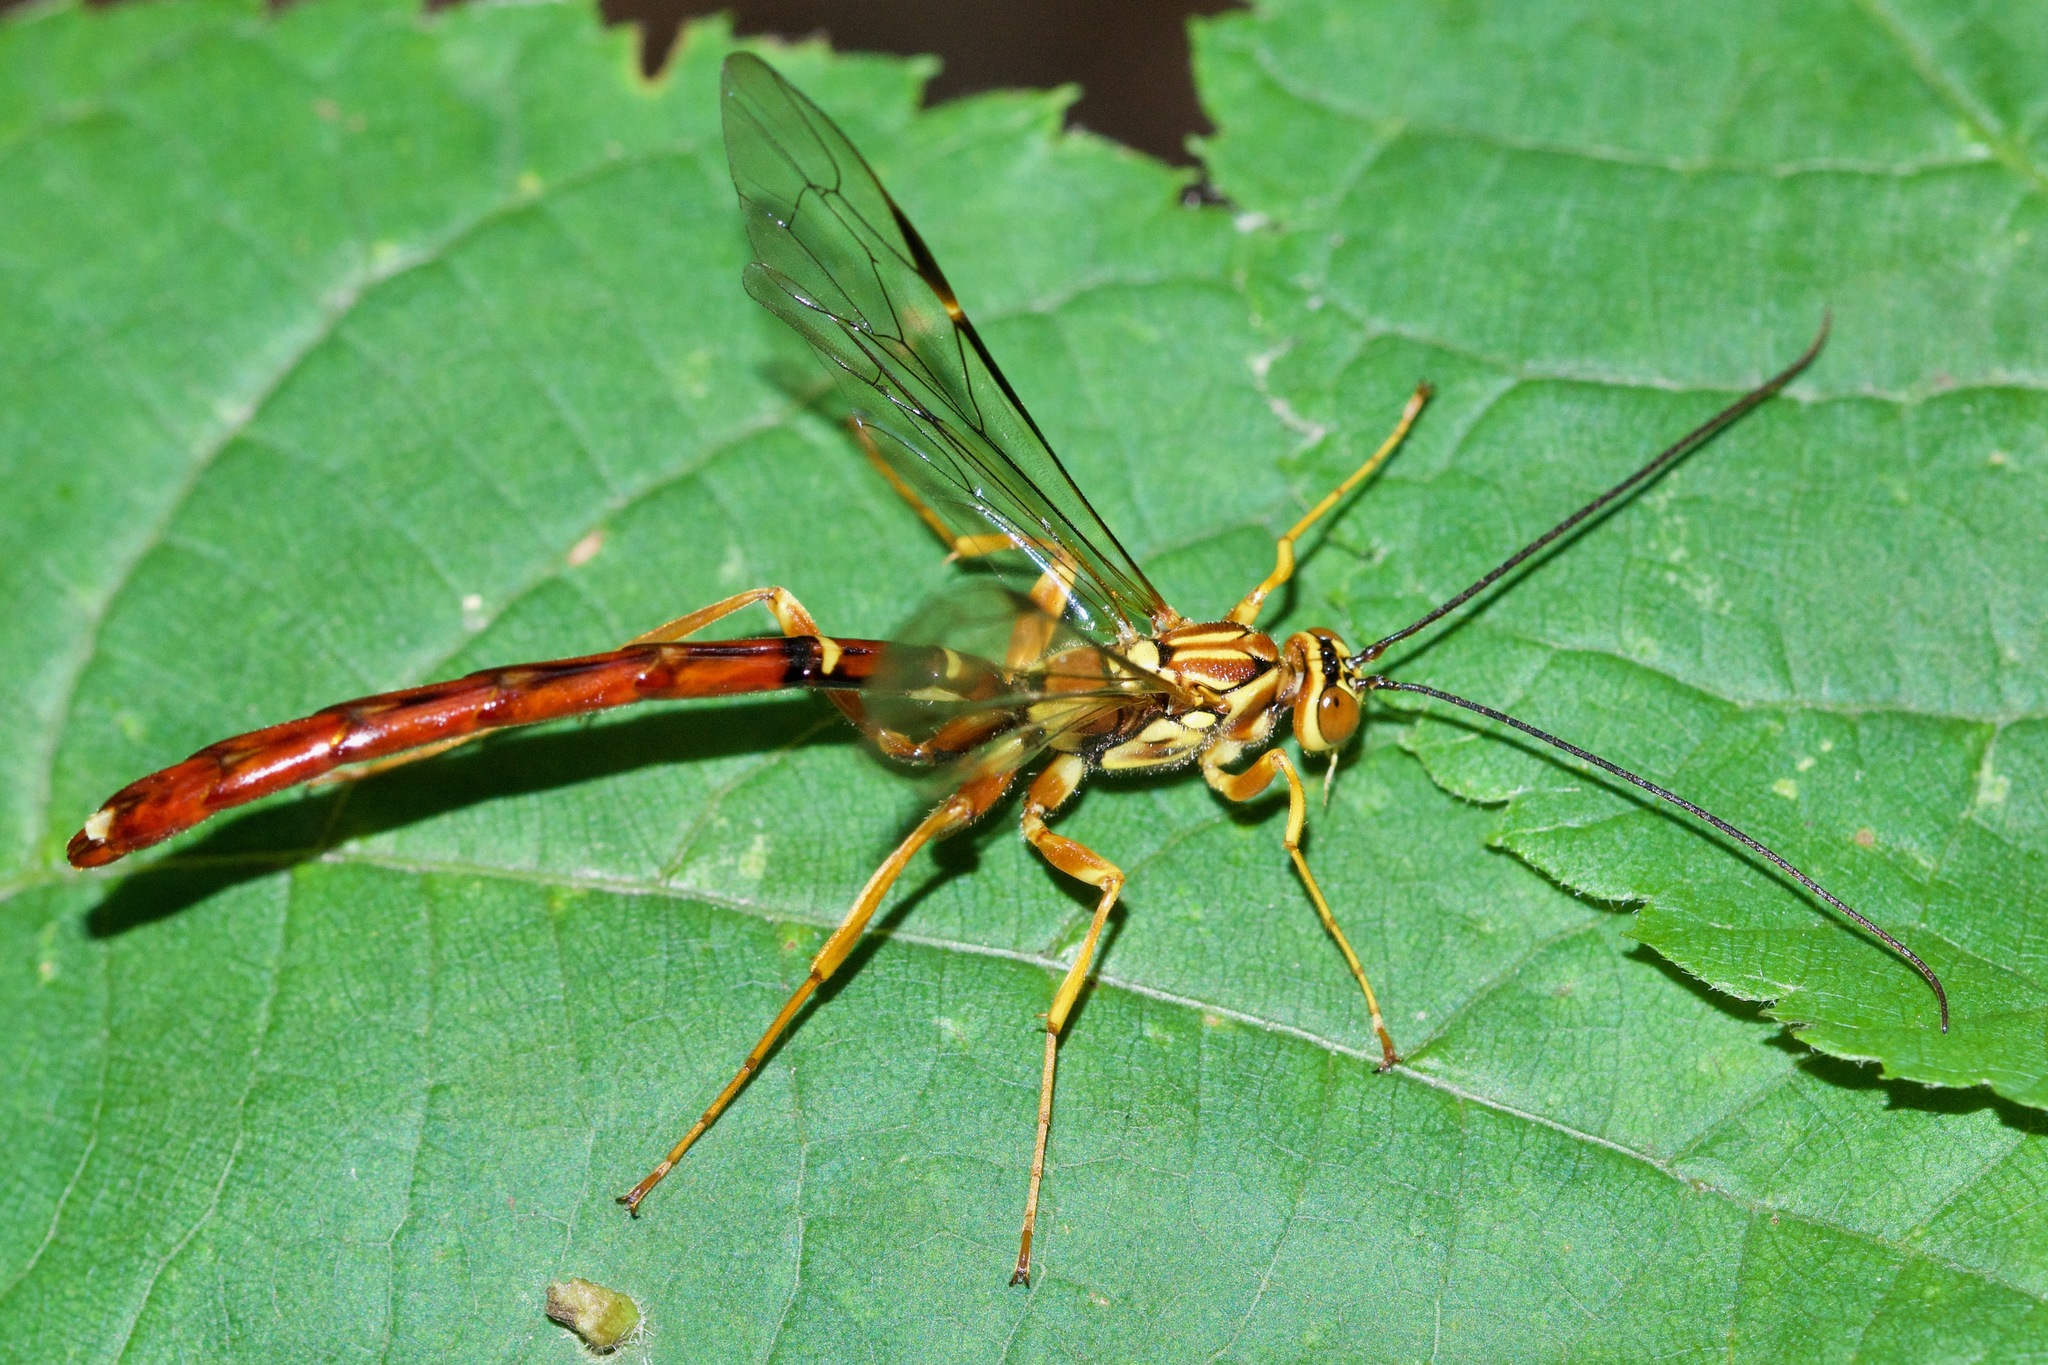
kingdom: Animalia
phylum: Arthropoda
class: Insecta
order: Hymenoptera
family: Ichneumonidae
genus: Megarhyssa
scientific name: Megarhyssa greenei
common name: Greene's giant ichneumonid wasp
